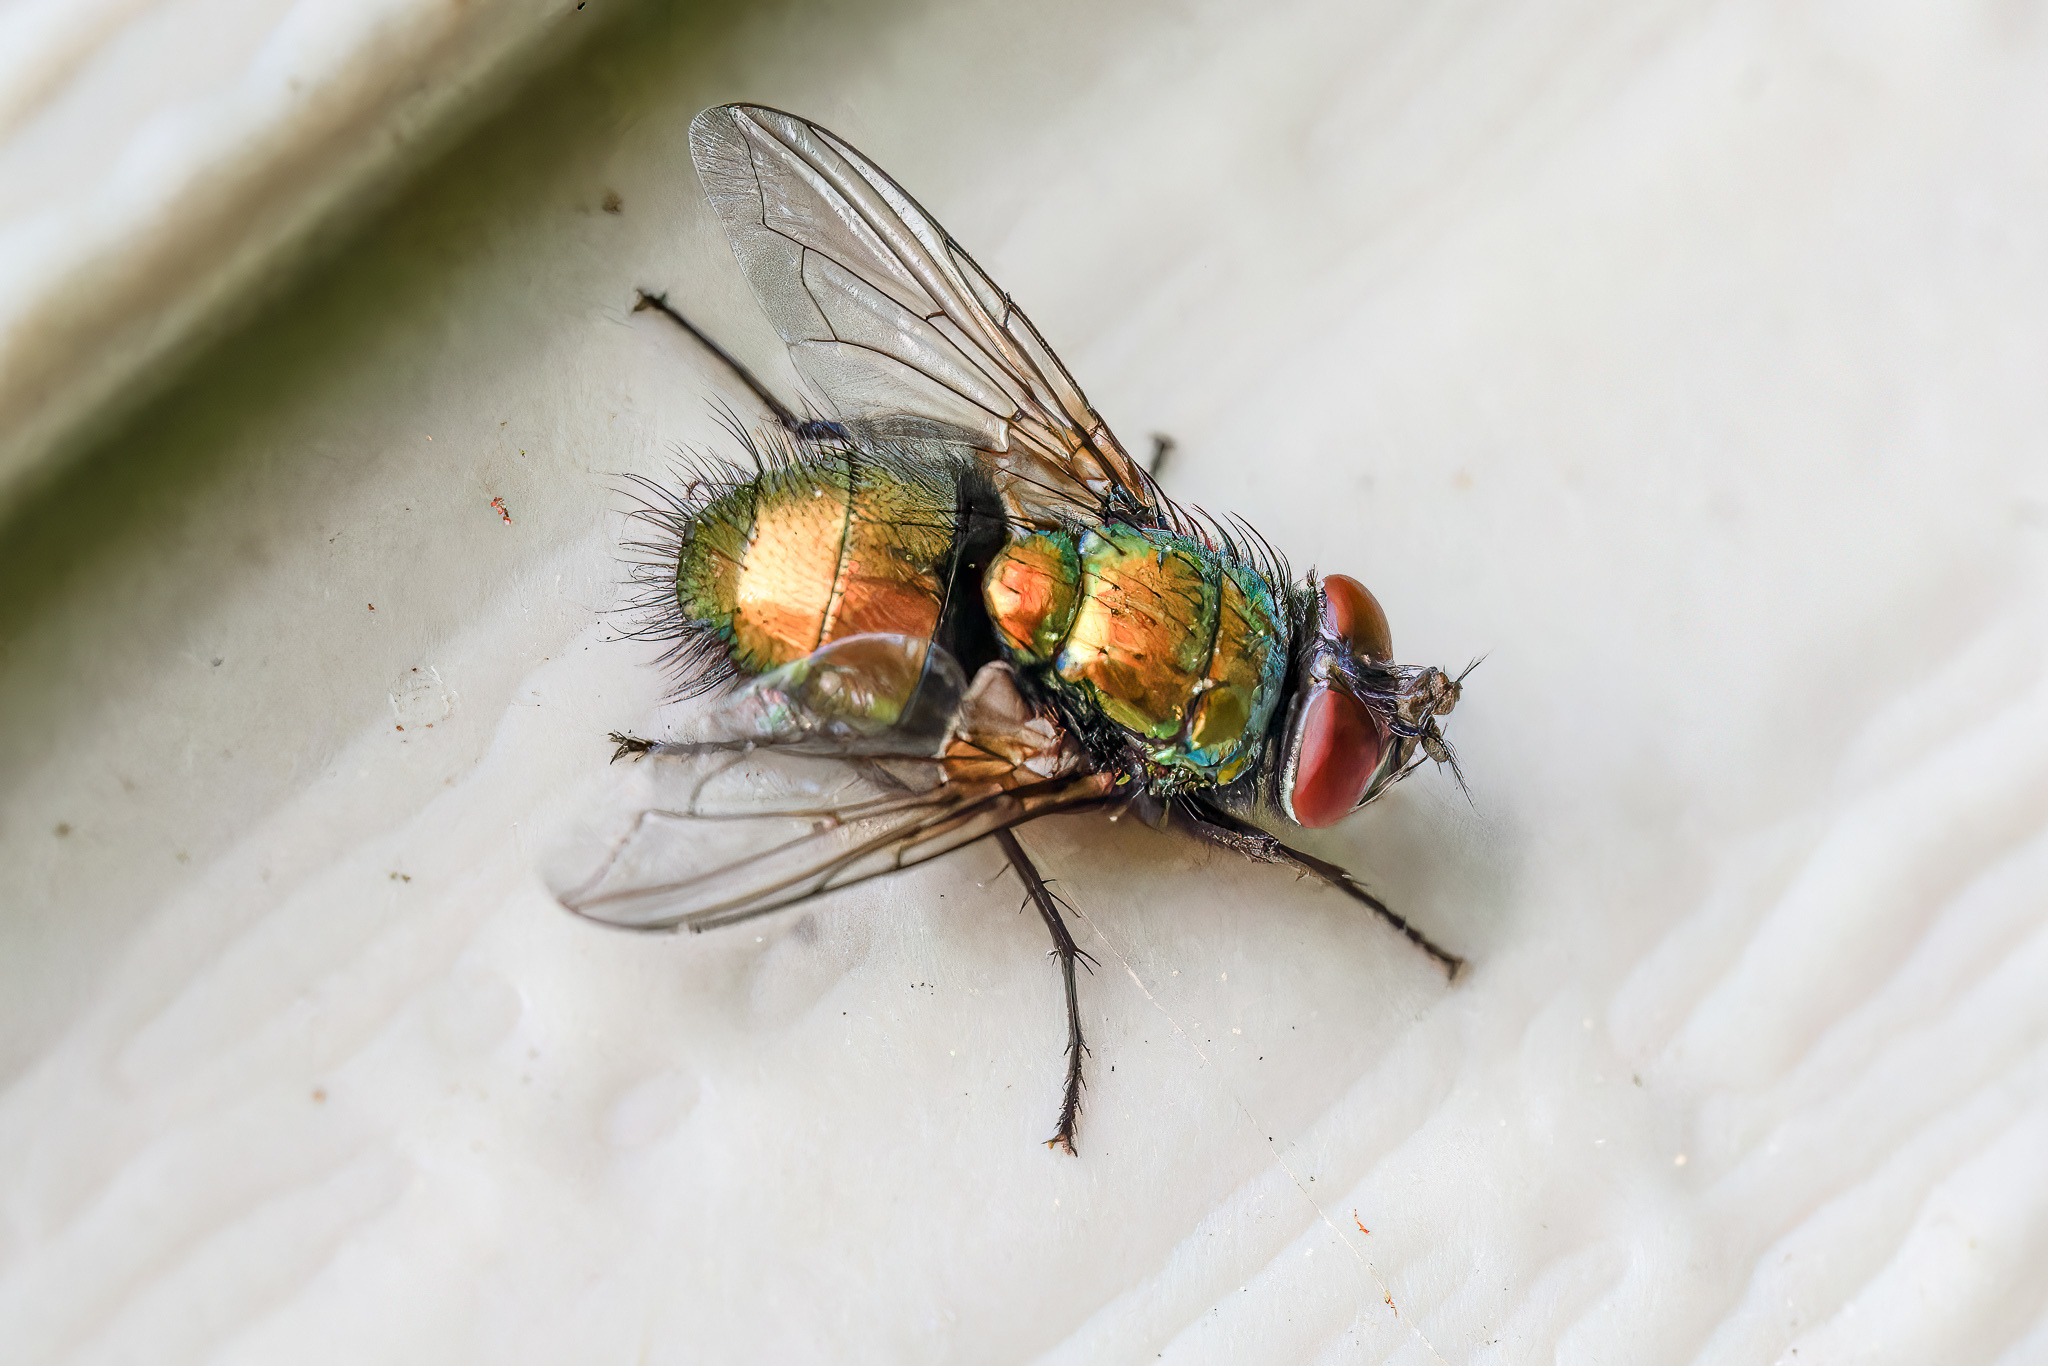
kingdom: Animalia
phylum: Arthropoda
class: Insecta
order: Diptera
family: Calliphoridae
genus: Lucilia
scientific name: Lucilia sericata
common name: Blow fly
